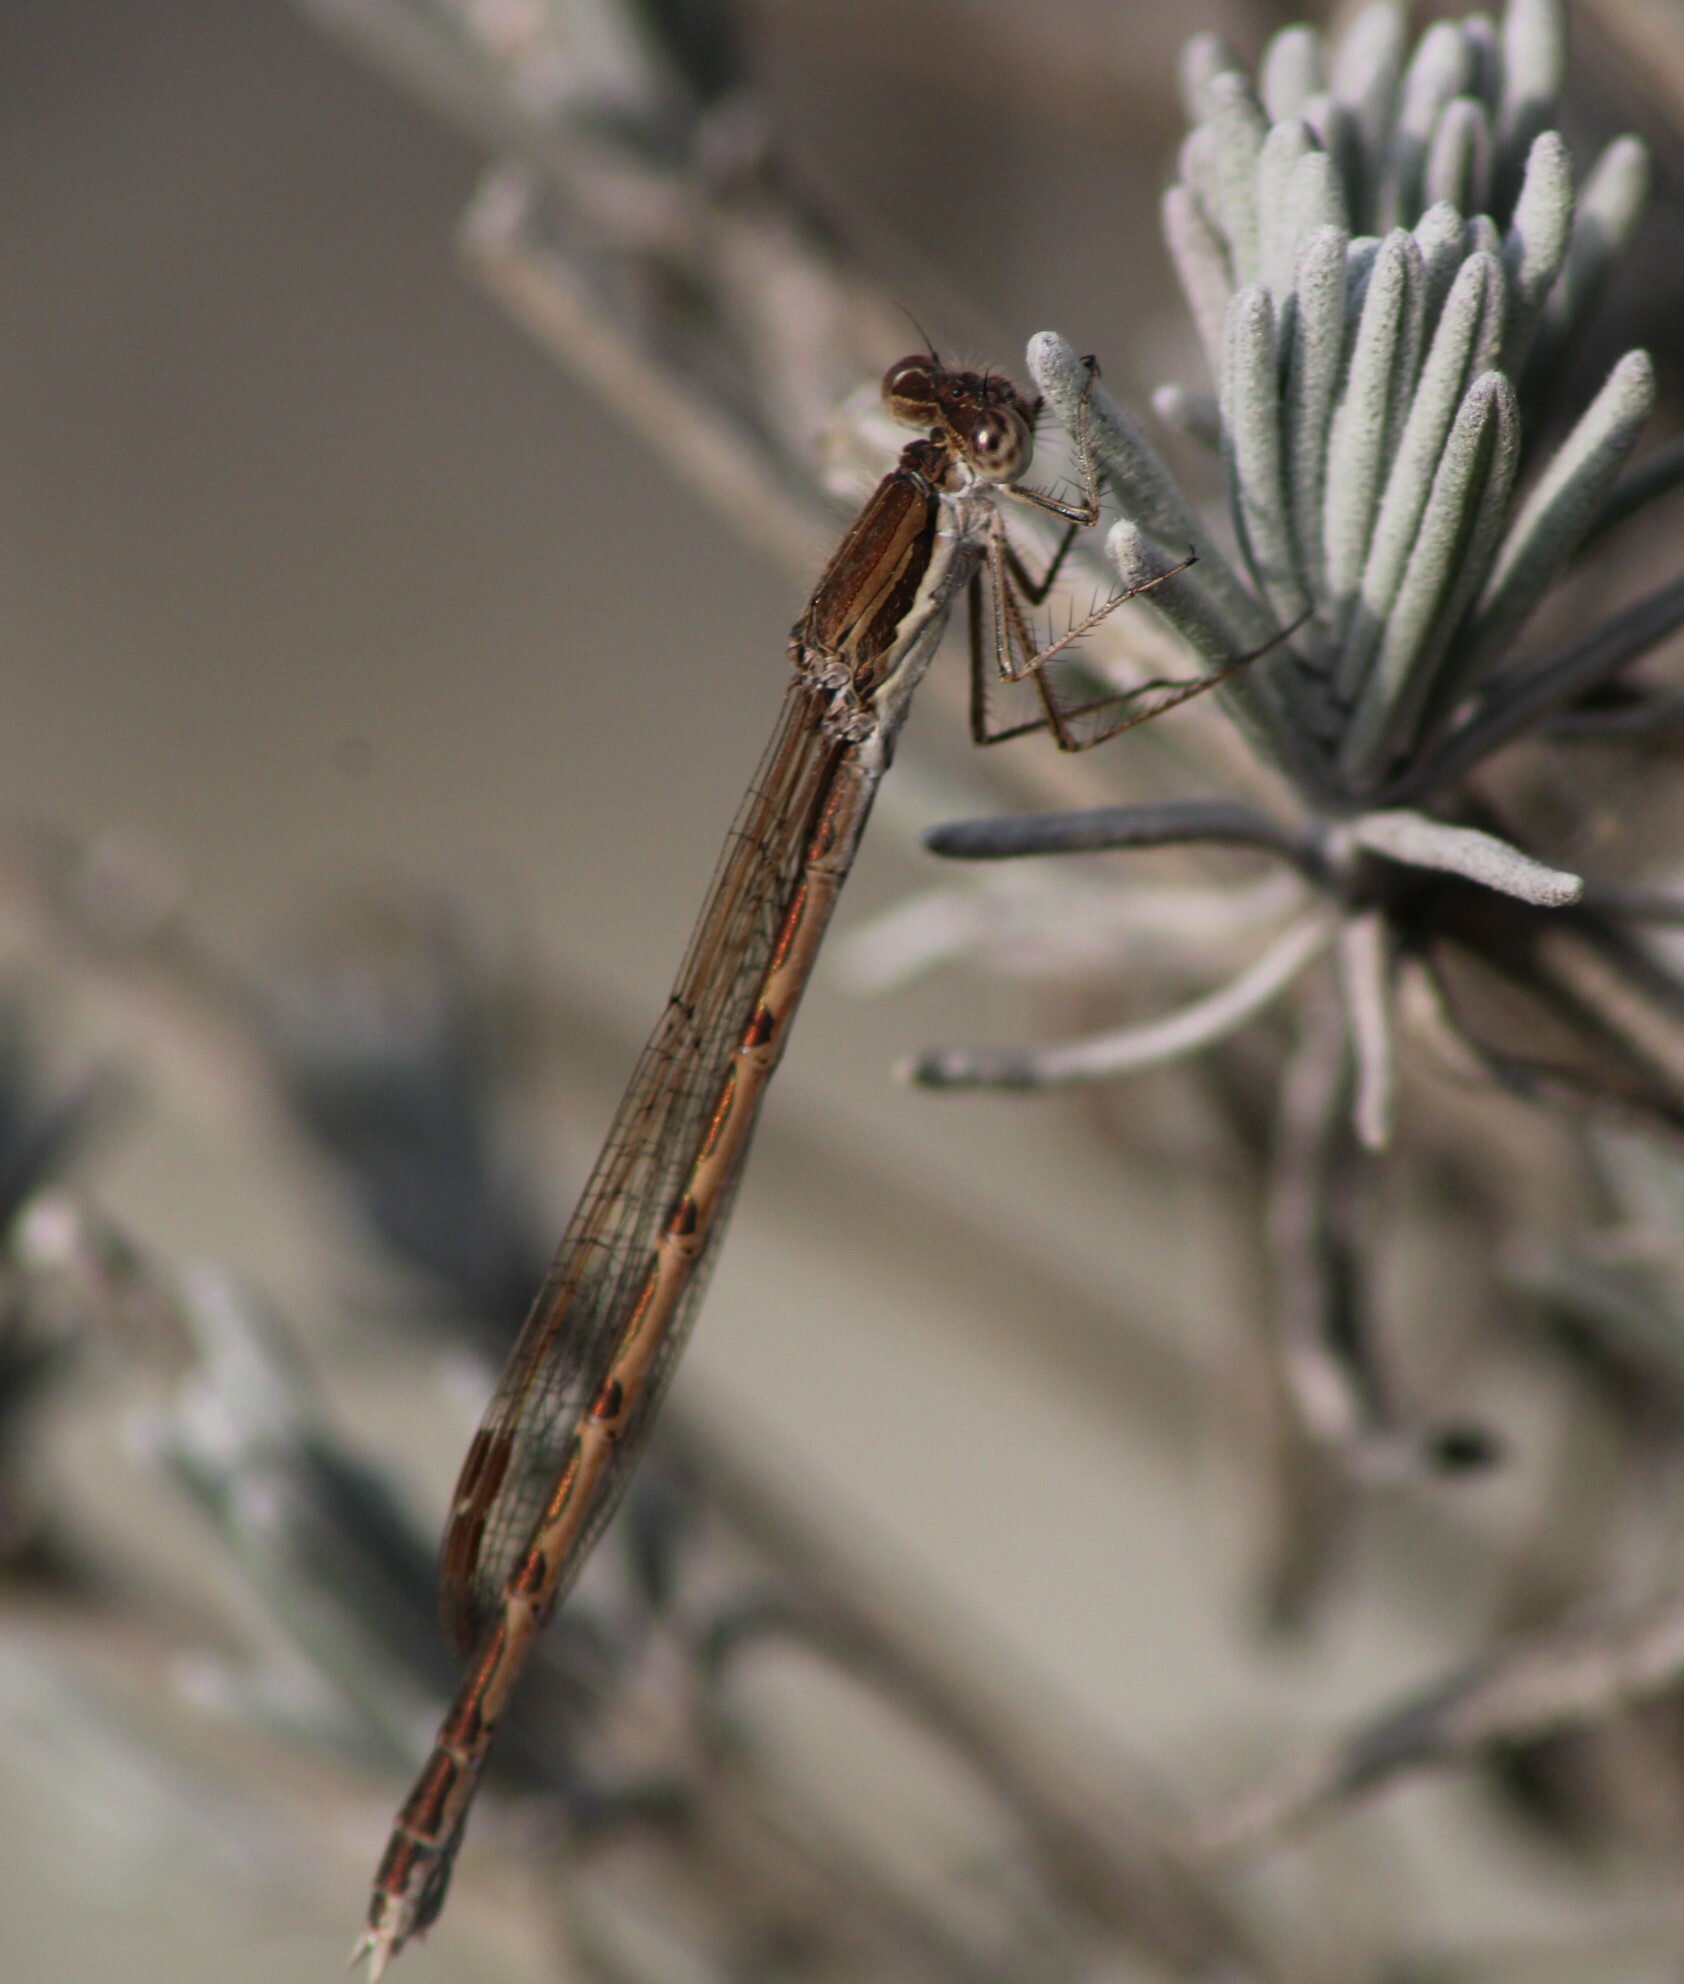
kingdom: Animalia
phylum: Arthropoda
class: Insecta
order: Odonata
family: Lestidae
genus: Sympecma
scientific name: Sympecma fusca
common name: Common winter damsel
